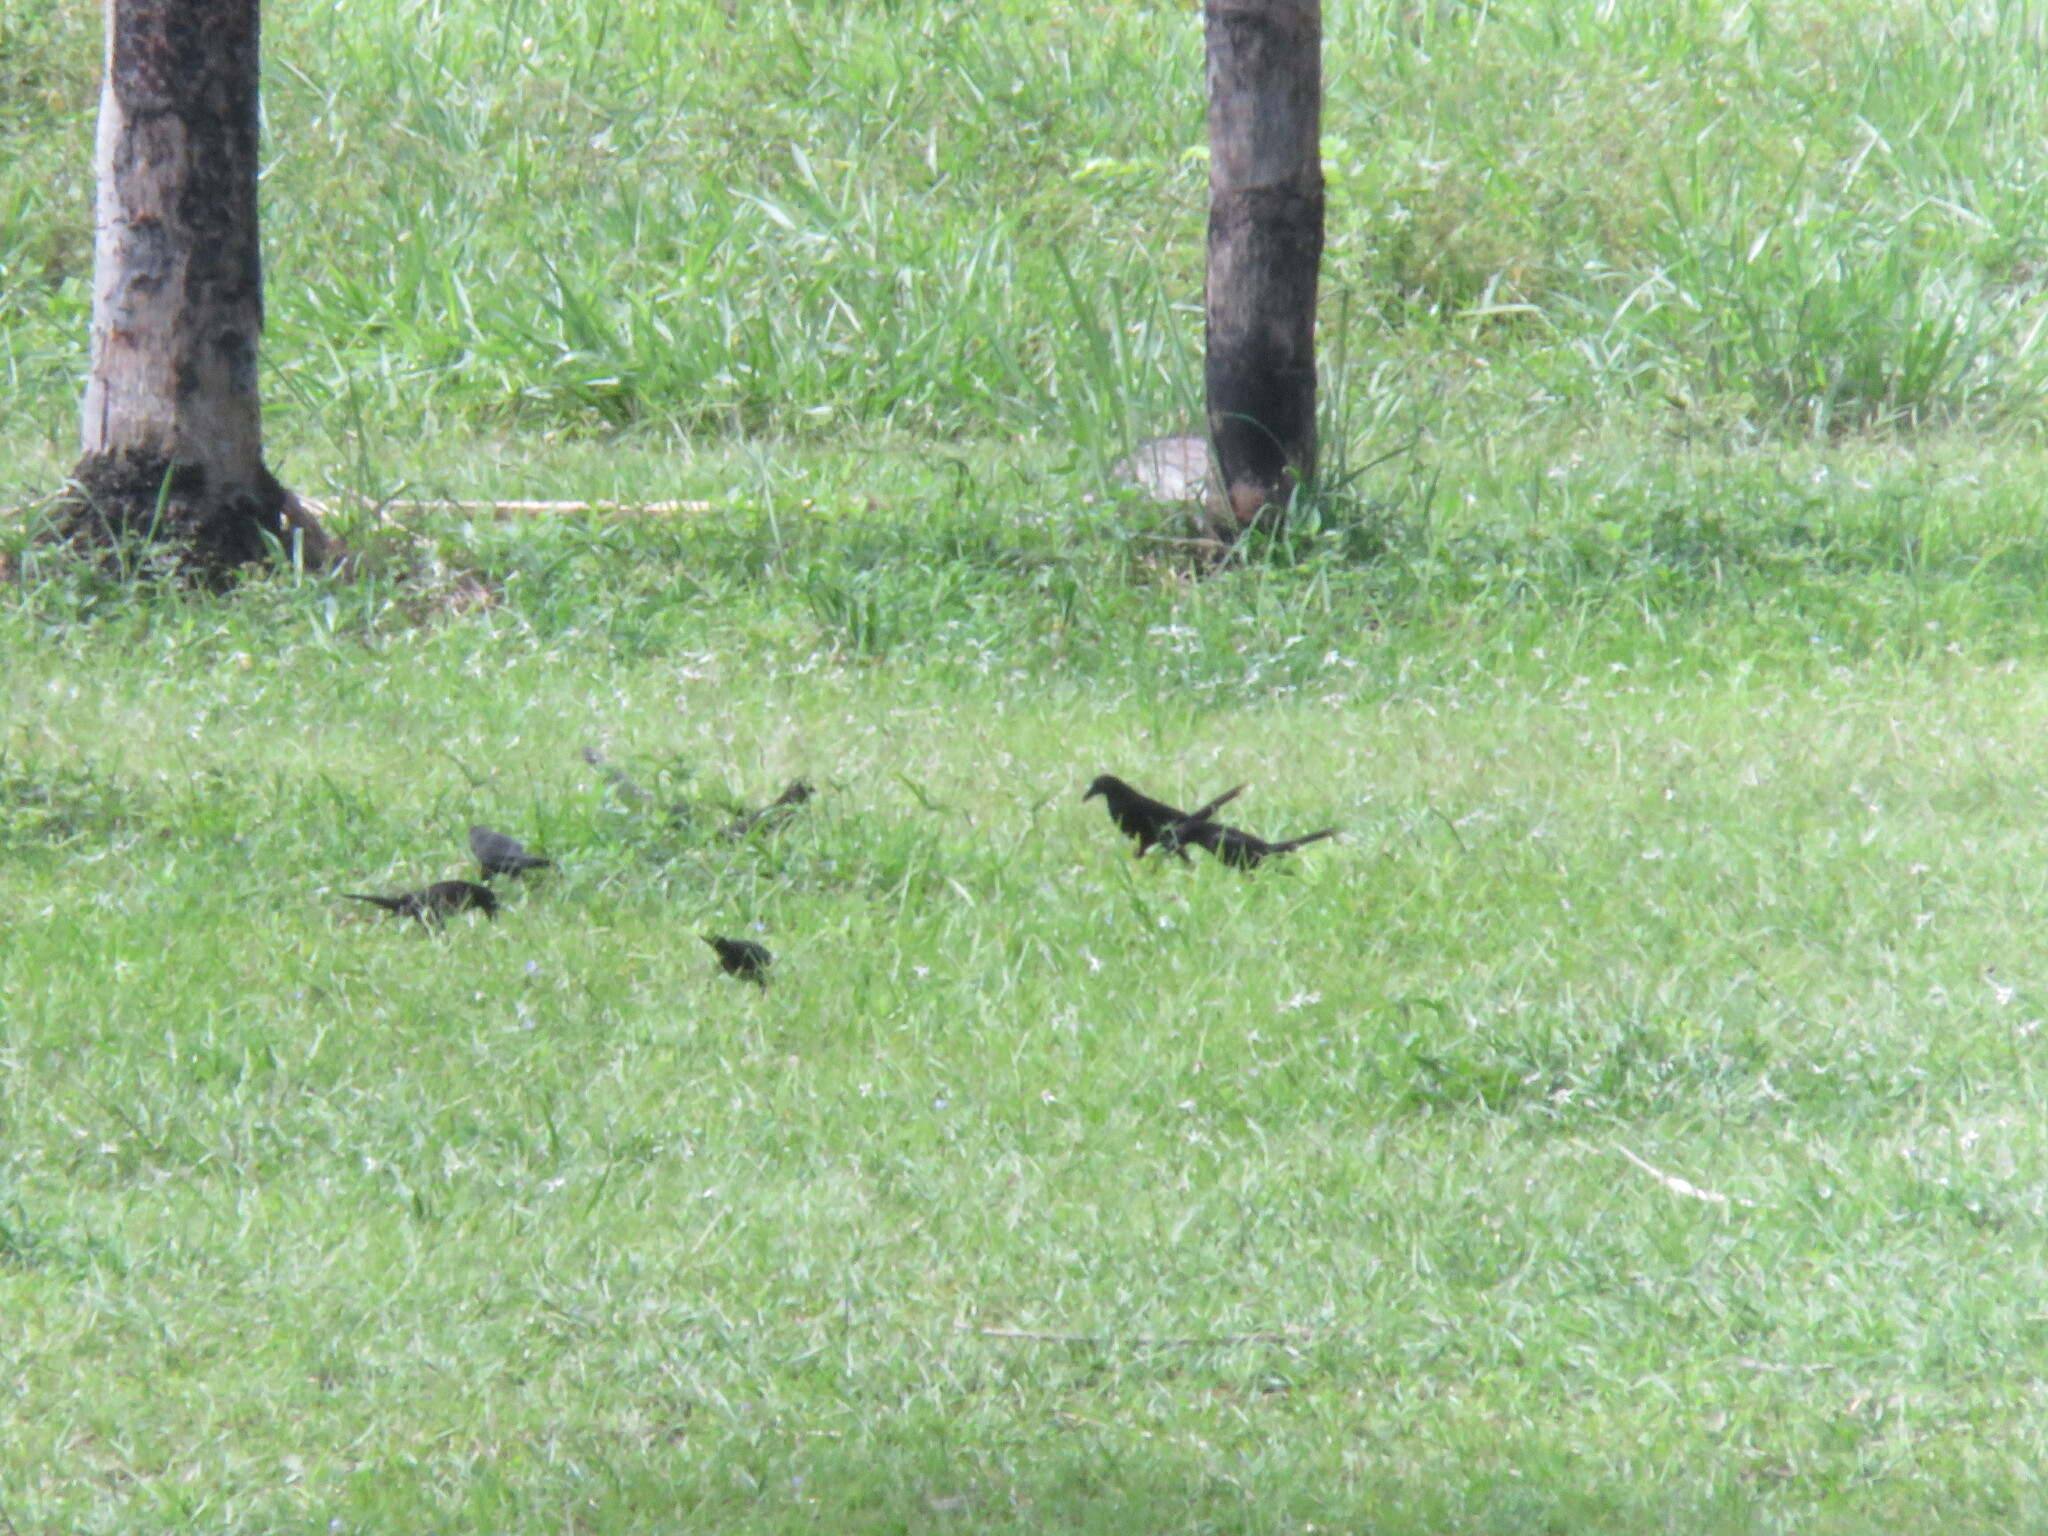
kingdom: Animalia
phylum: Chordata
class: Aves
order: Passeriformes
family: Icteridae
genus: Molothrus
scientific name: Molothrus oryzivorus
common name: Giant cowbird
